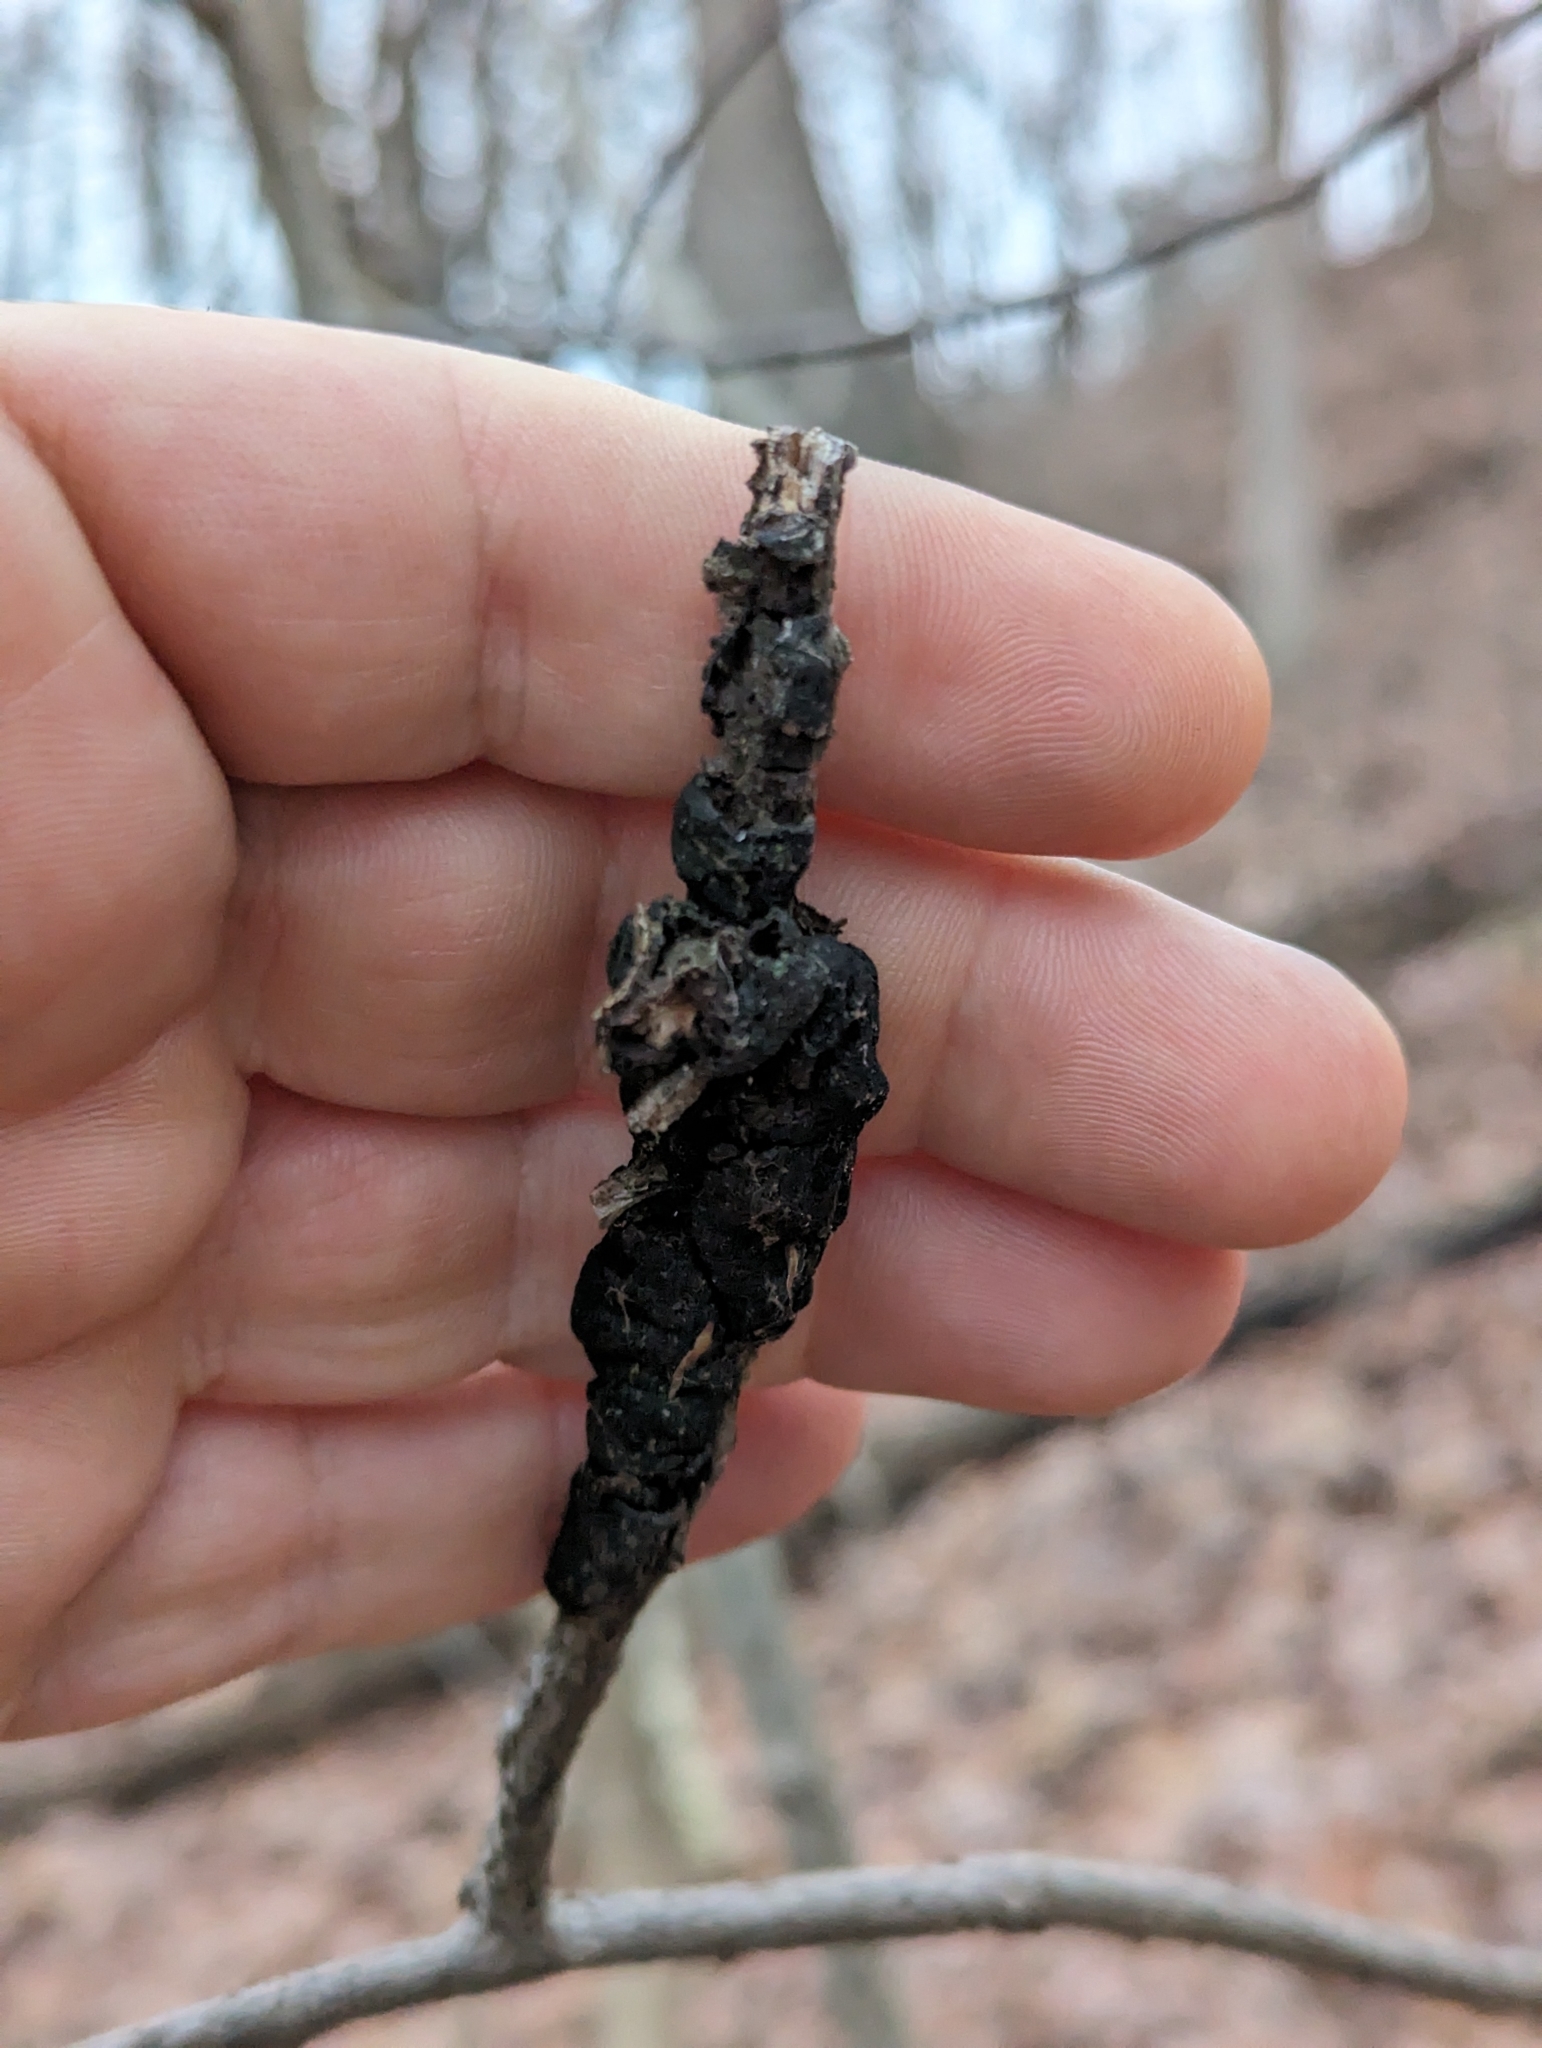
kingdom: Fungi
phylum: Ascomycota
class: Dothideomycetes
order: Venturiales
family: Venturiaceae
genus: Apiosporina
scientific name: Apiosporina morbosa
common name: Black knot
